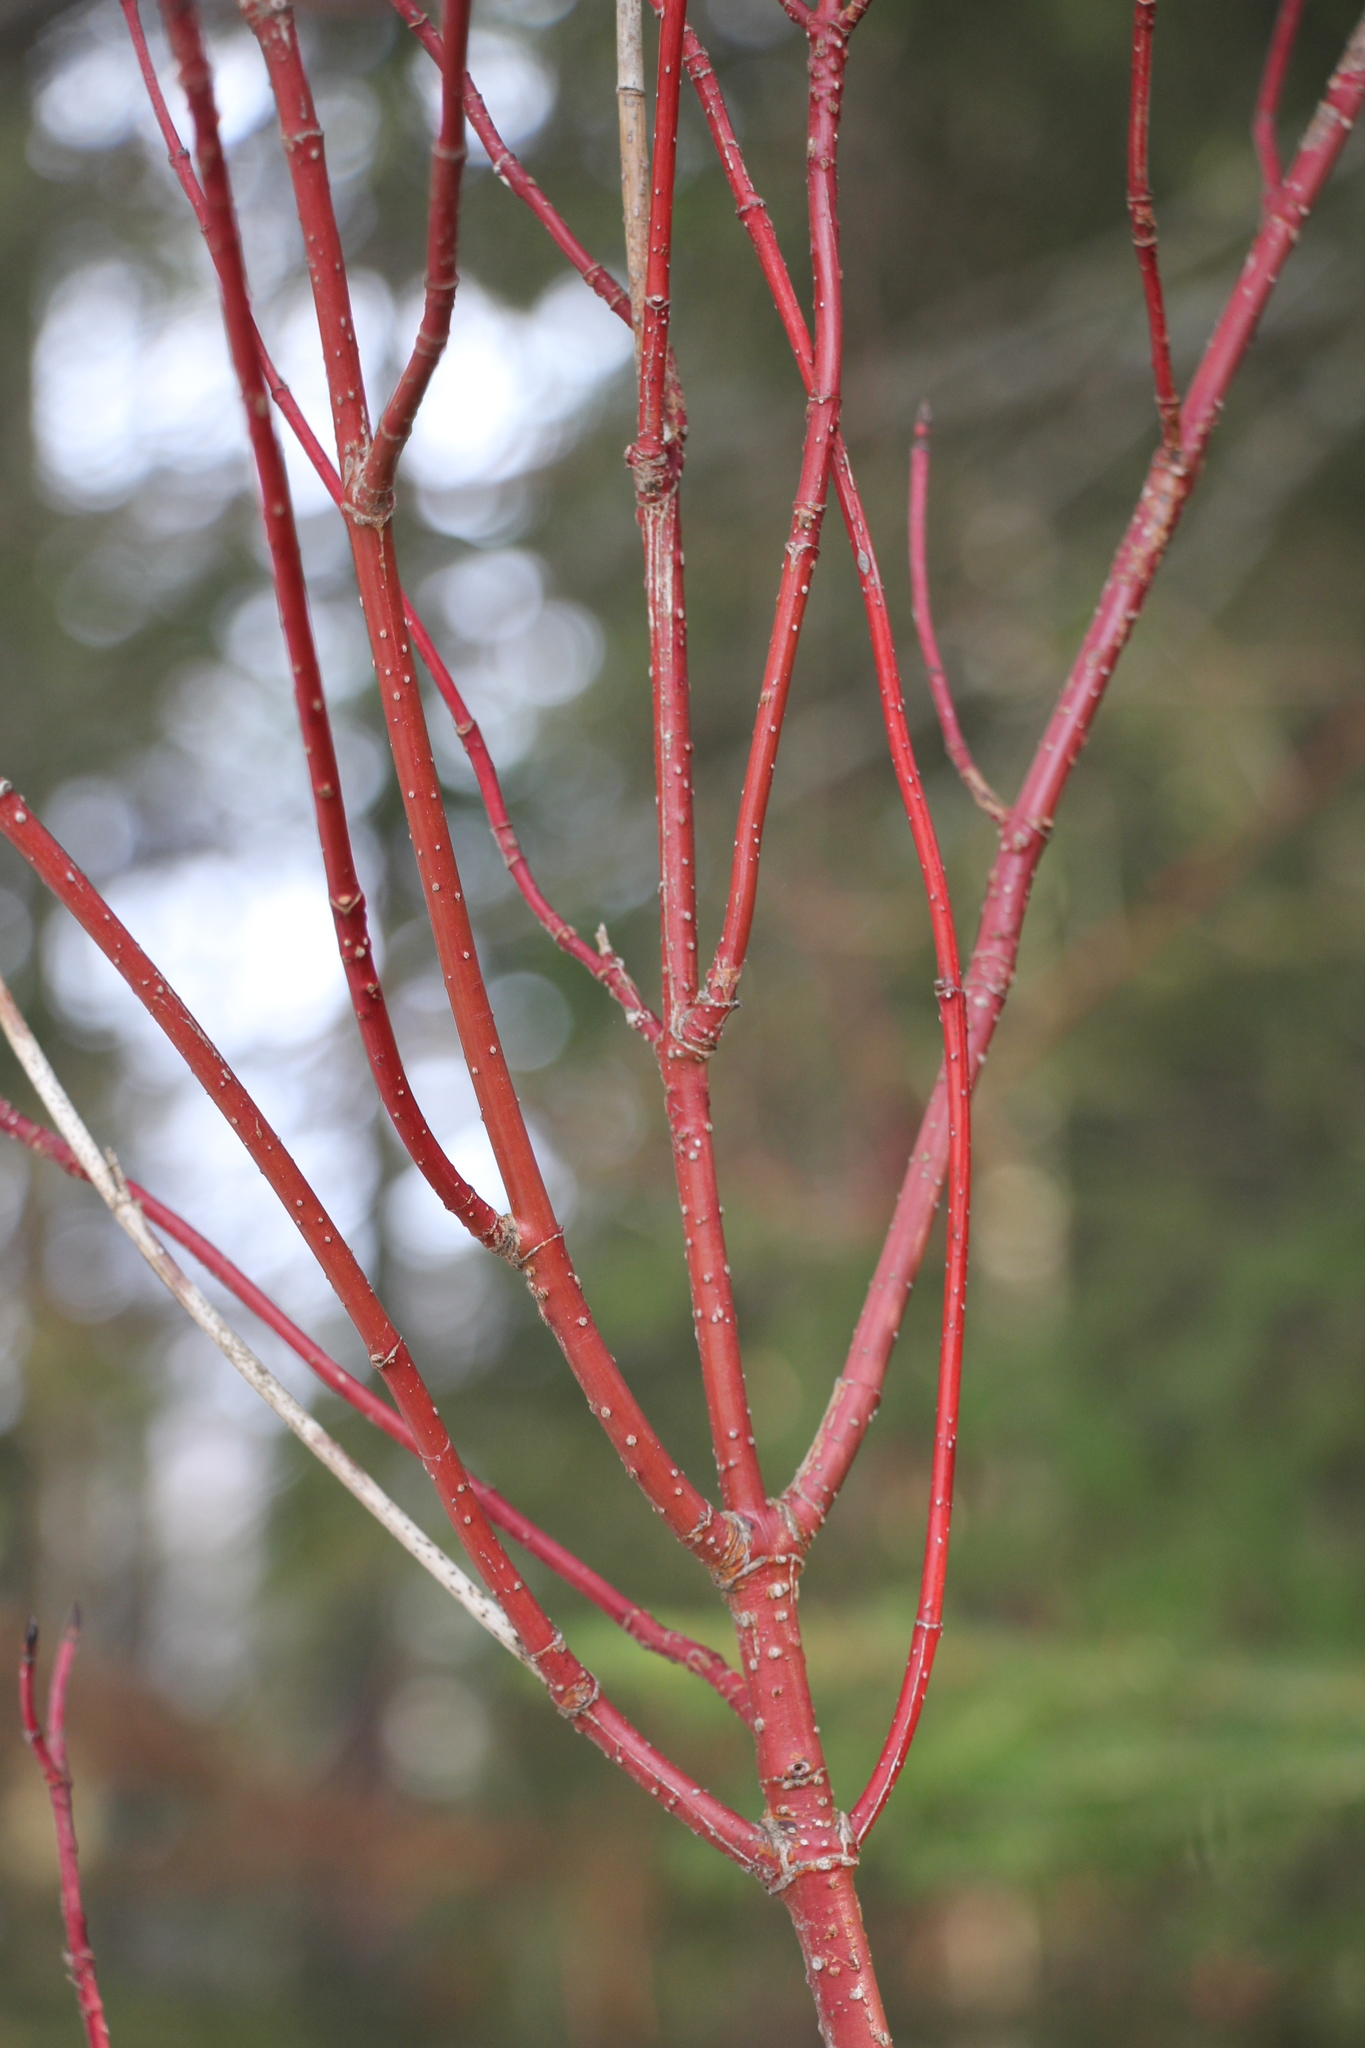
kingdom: Plantae
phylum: Tracheophyta
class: Magnoliopsida
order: Cornales
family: Cornaceae
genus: Cornus
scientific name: Cornus alba
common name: White dogwood
